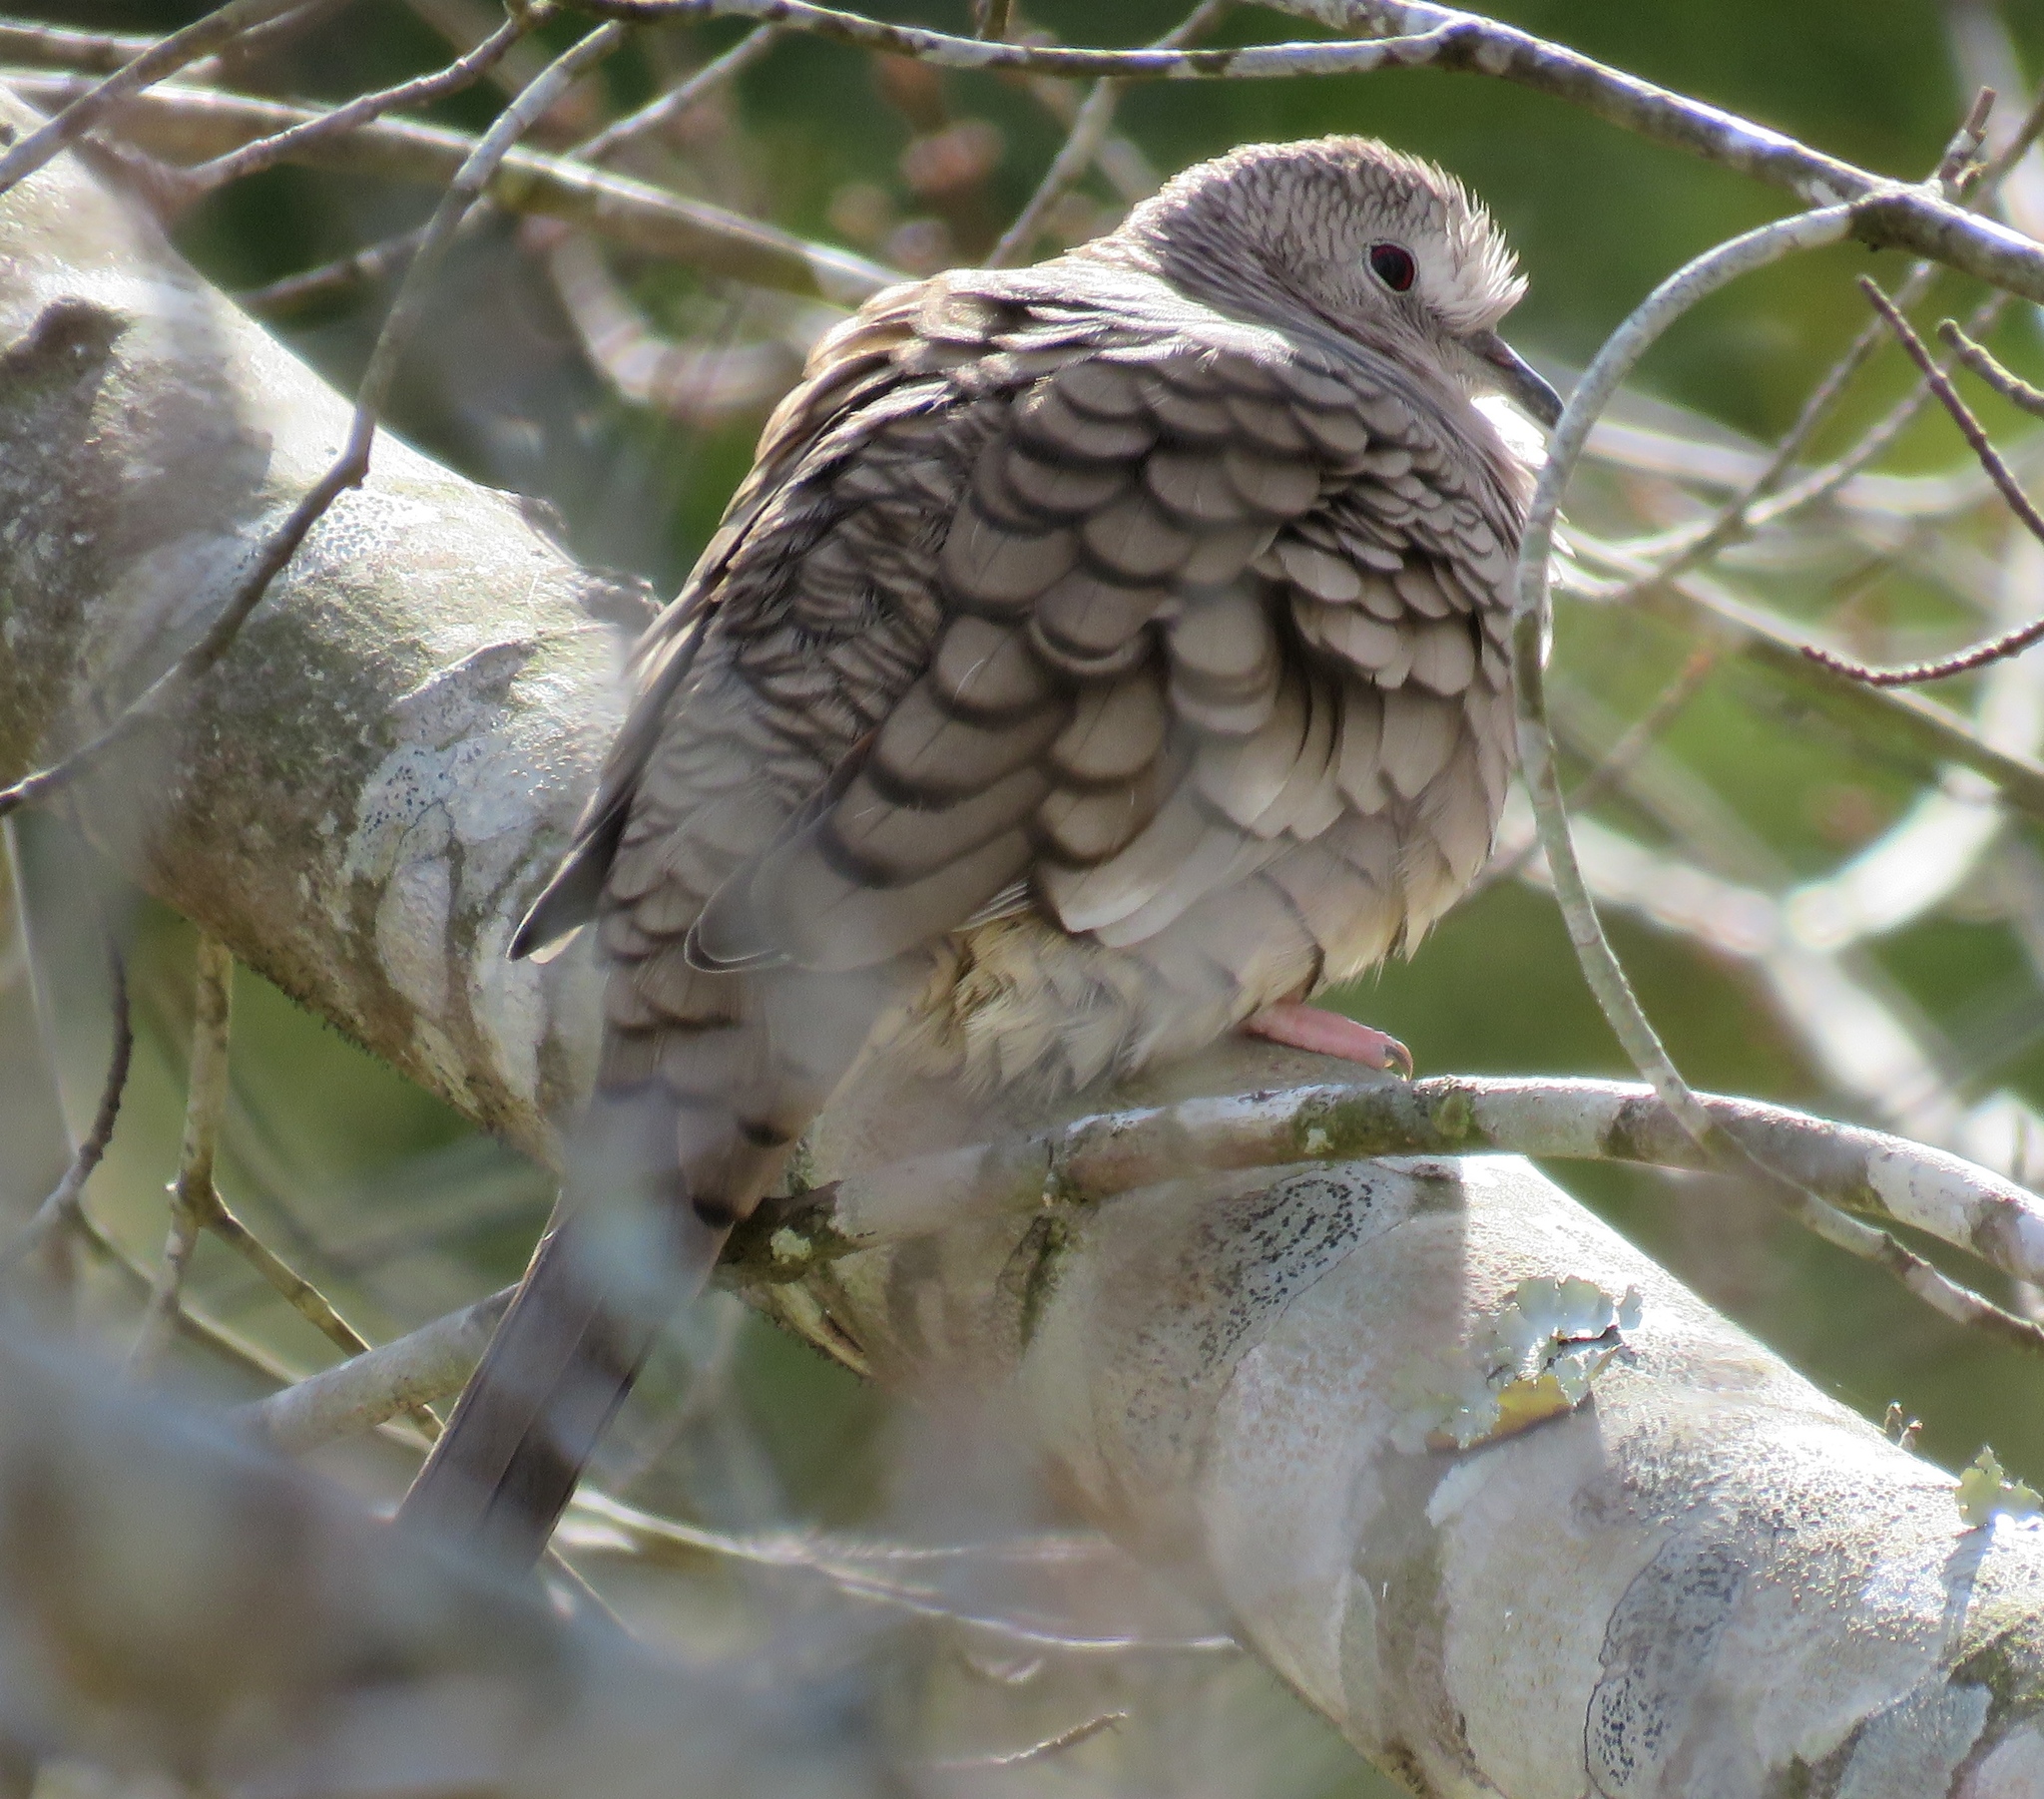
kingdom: Animalia
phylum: Chordata
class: Aves
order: Columbiformes
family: Columbidae
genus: Columbina
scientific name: Columbina inca
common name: Inca dove
